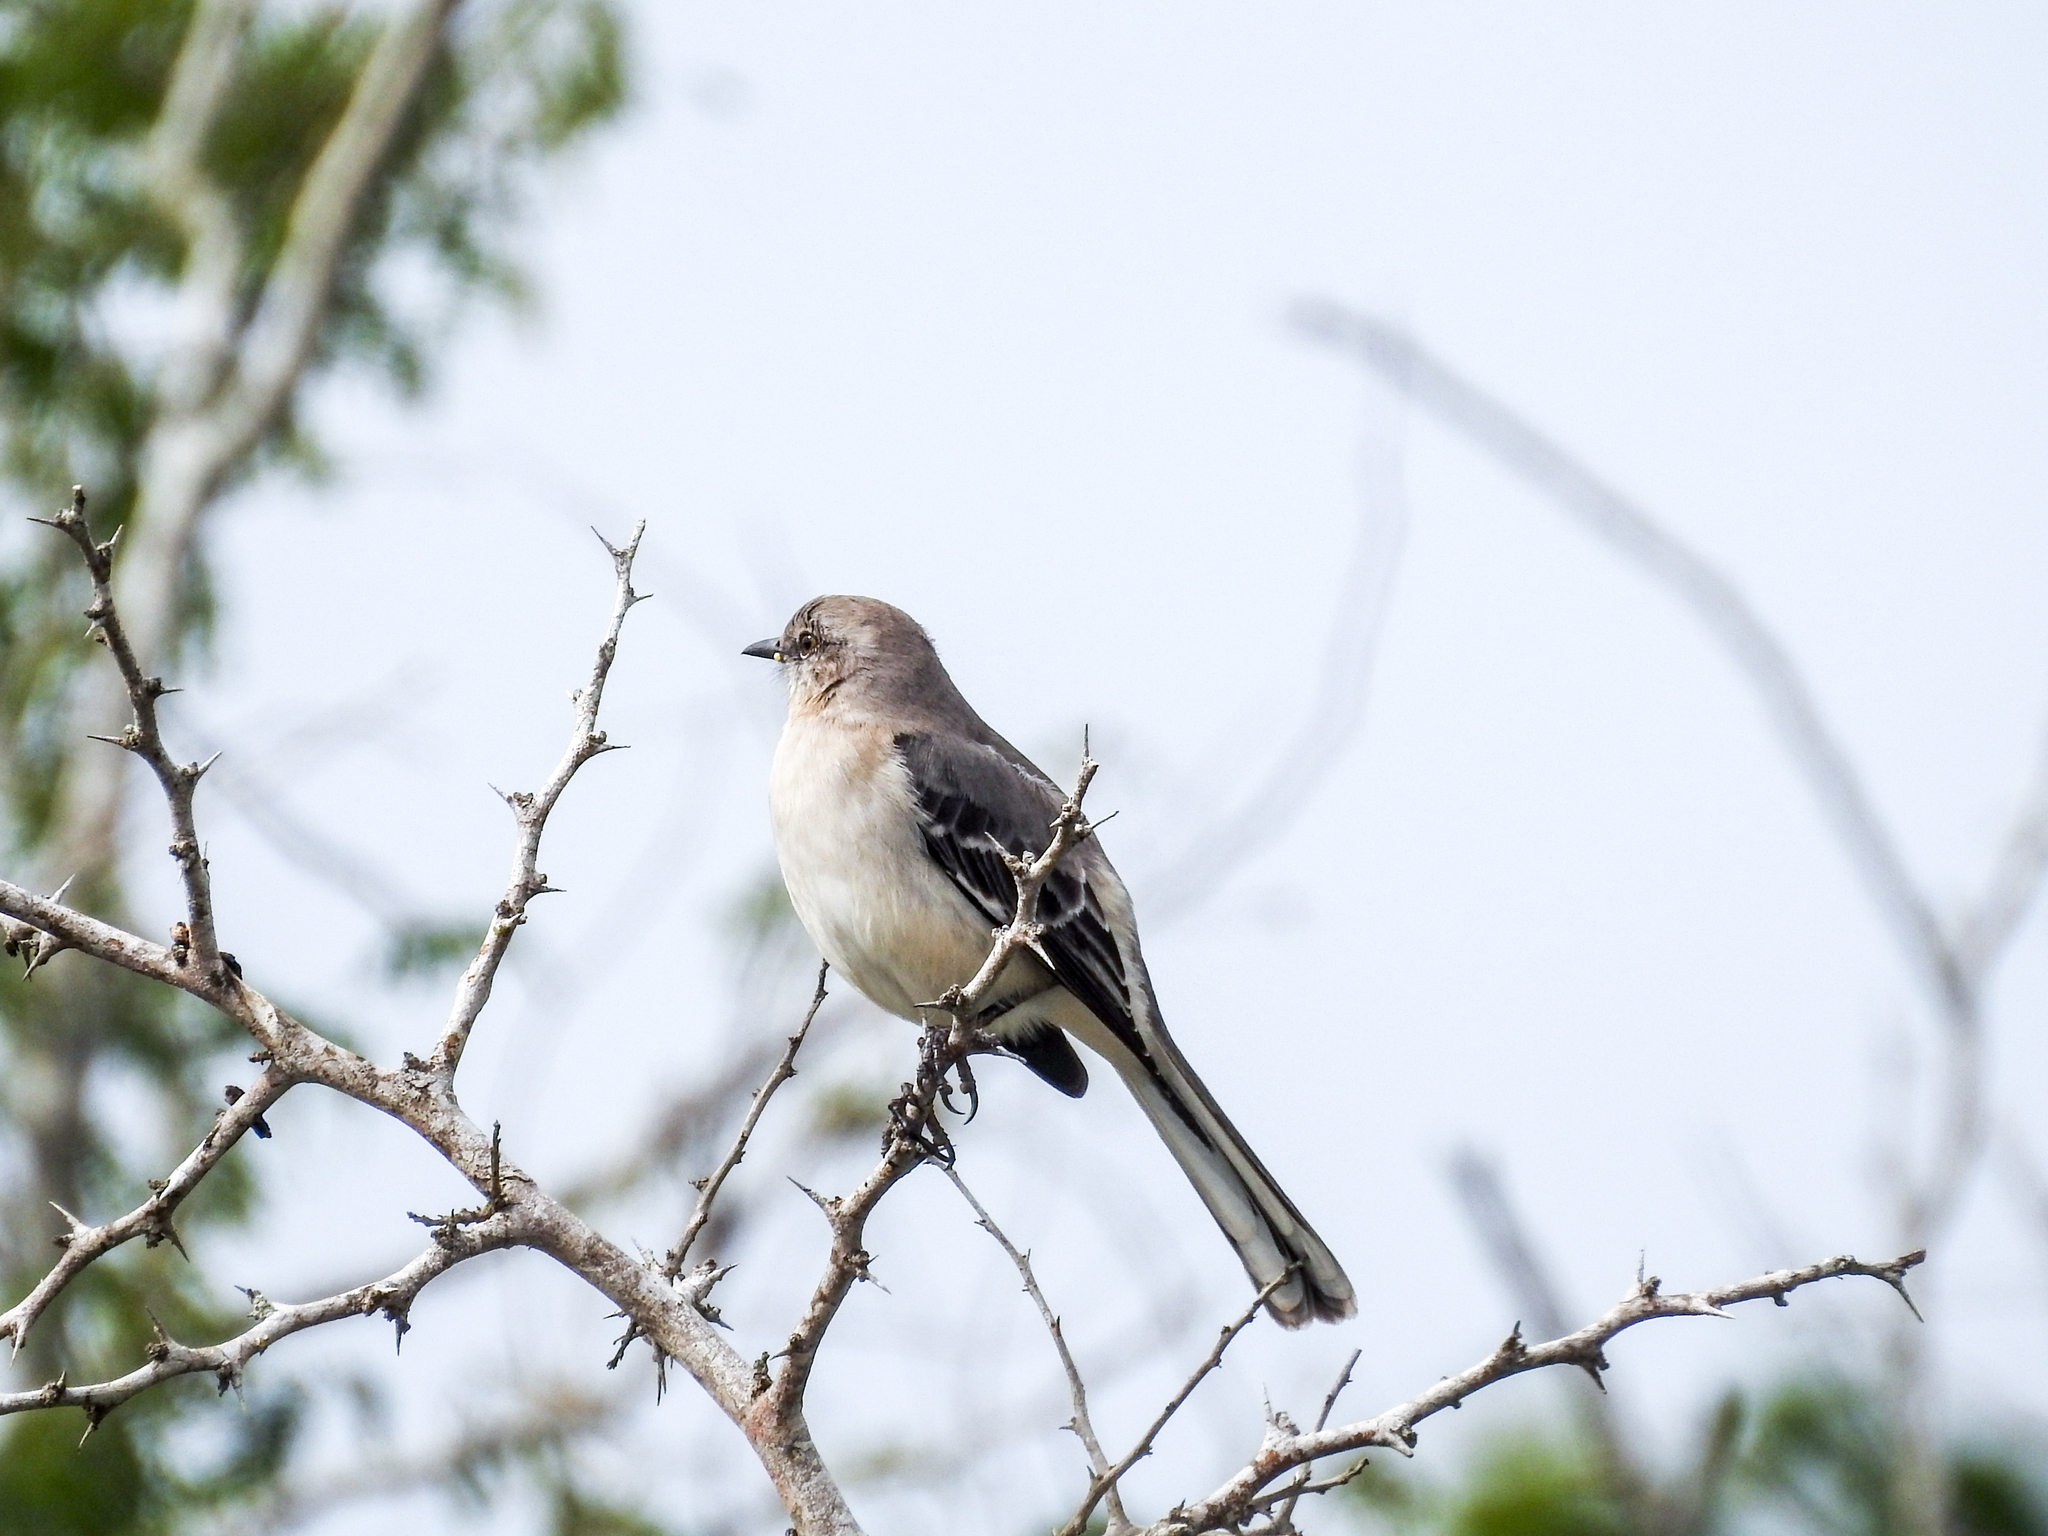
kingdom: Animalia
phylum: Chordata
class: Aves
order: Passeriformes
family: Mimidae
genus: Mimus
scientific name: Mimus polyglottos
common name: Northern mockingbird
